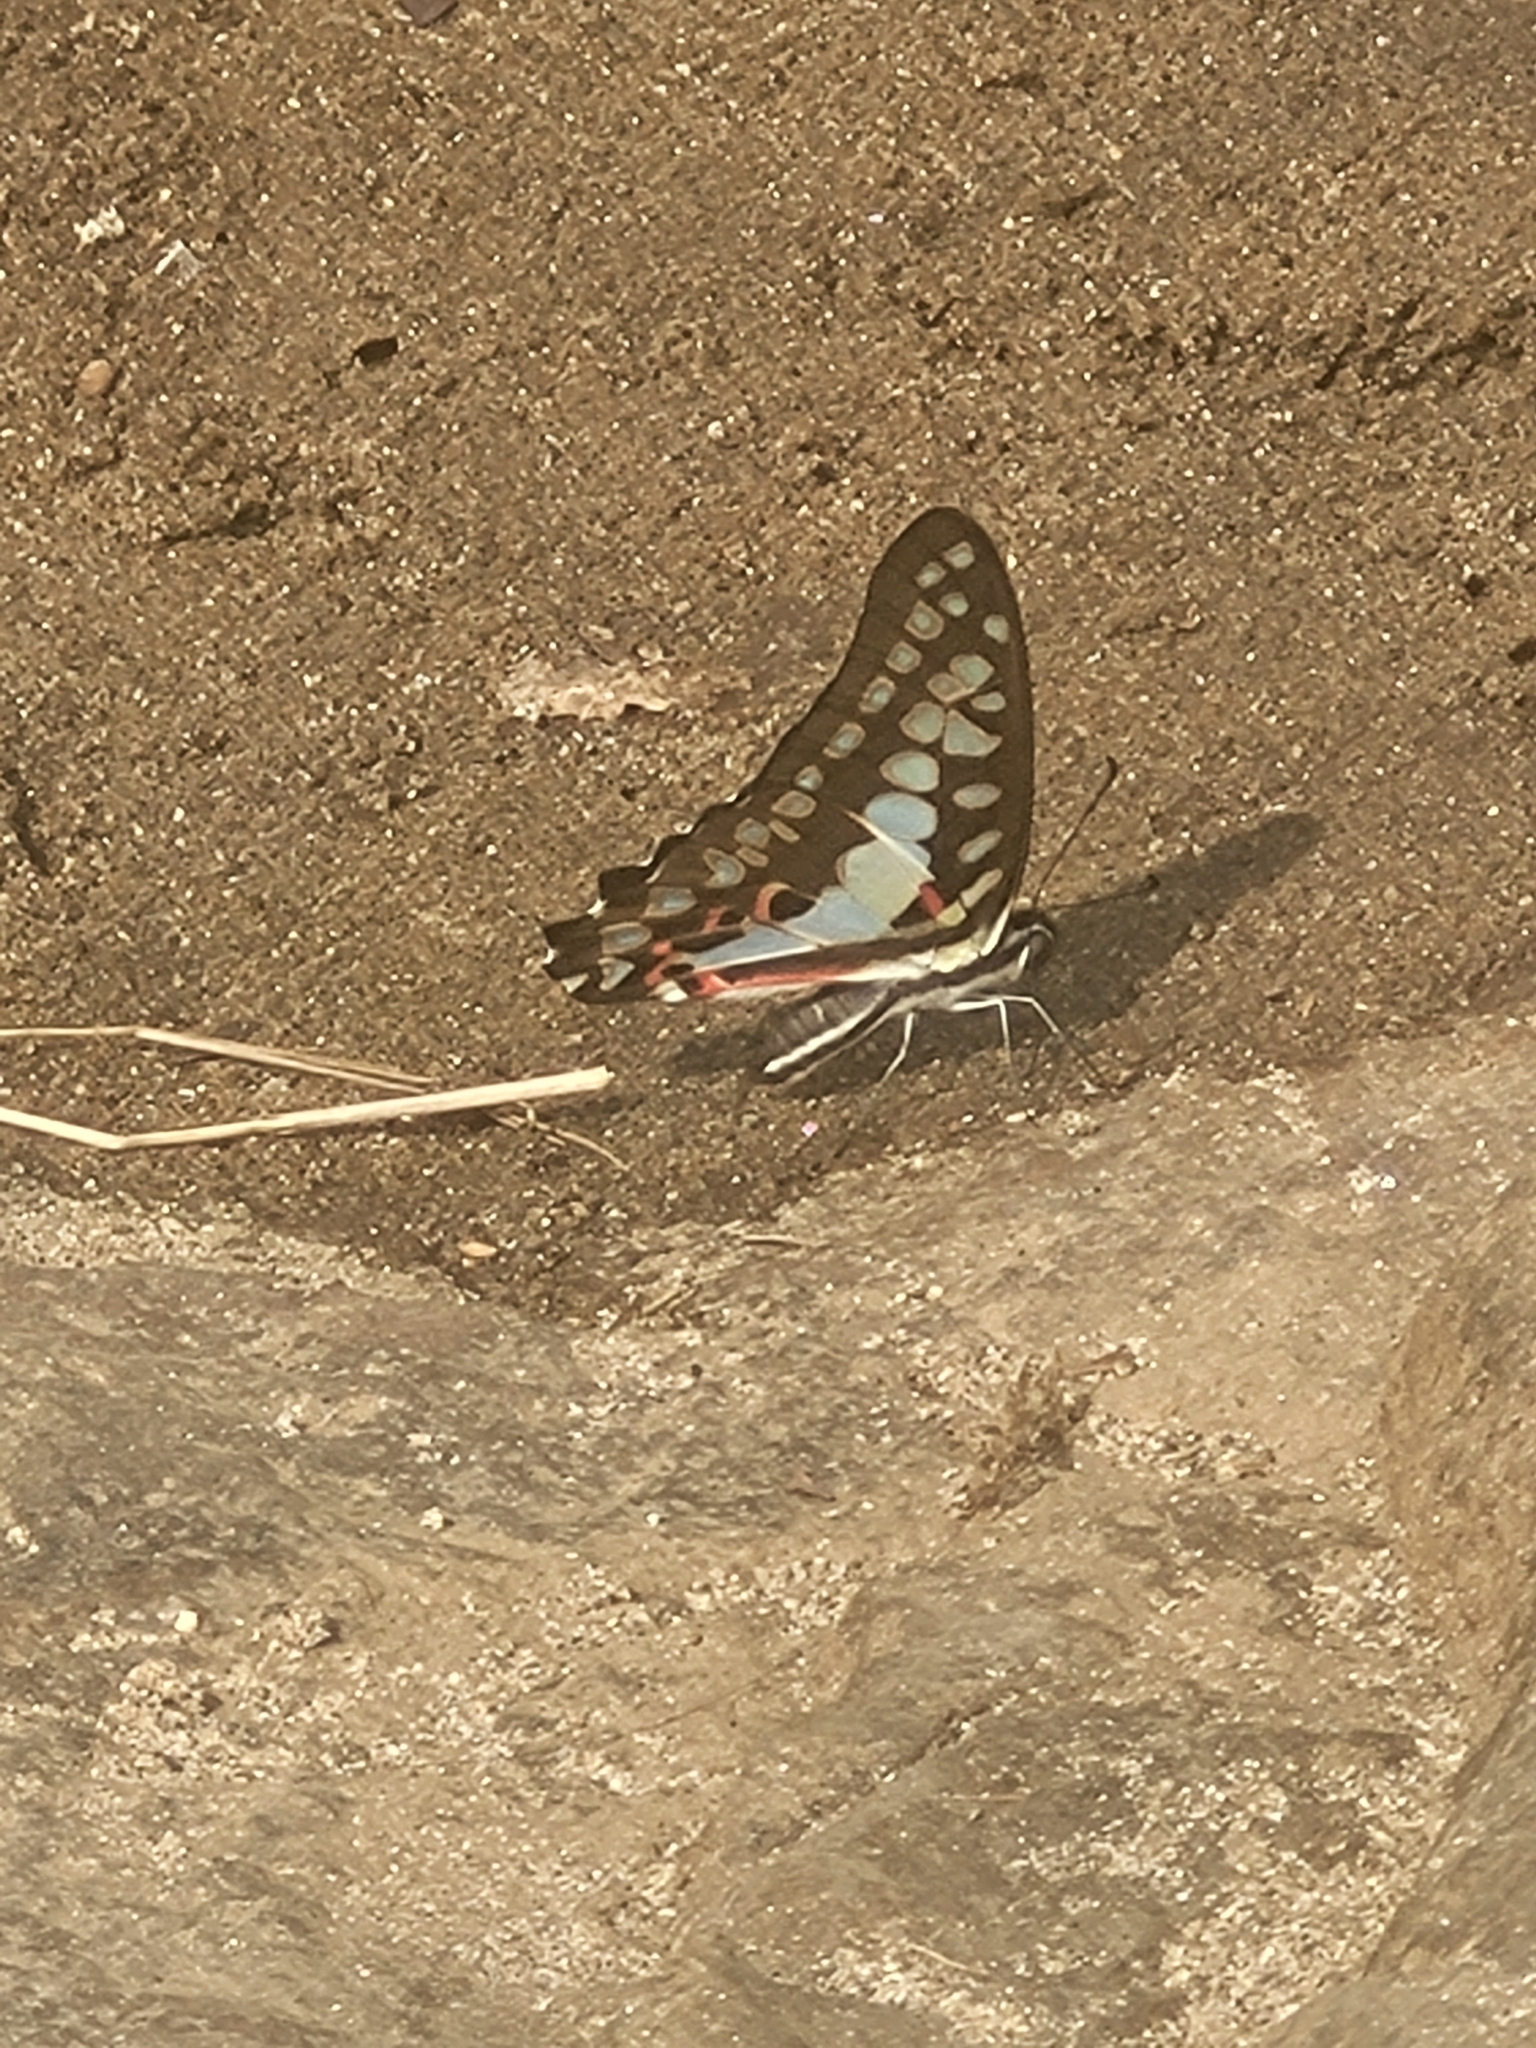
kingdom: Animalia
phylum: Arthropoda
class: Insecta
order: Lepidoptera
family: Papilionidae
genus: Graphium
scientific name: Graphium doson
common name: Common jay
